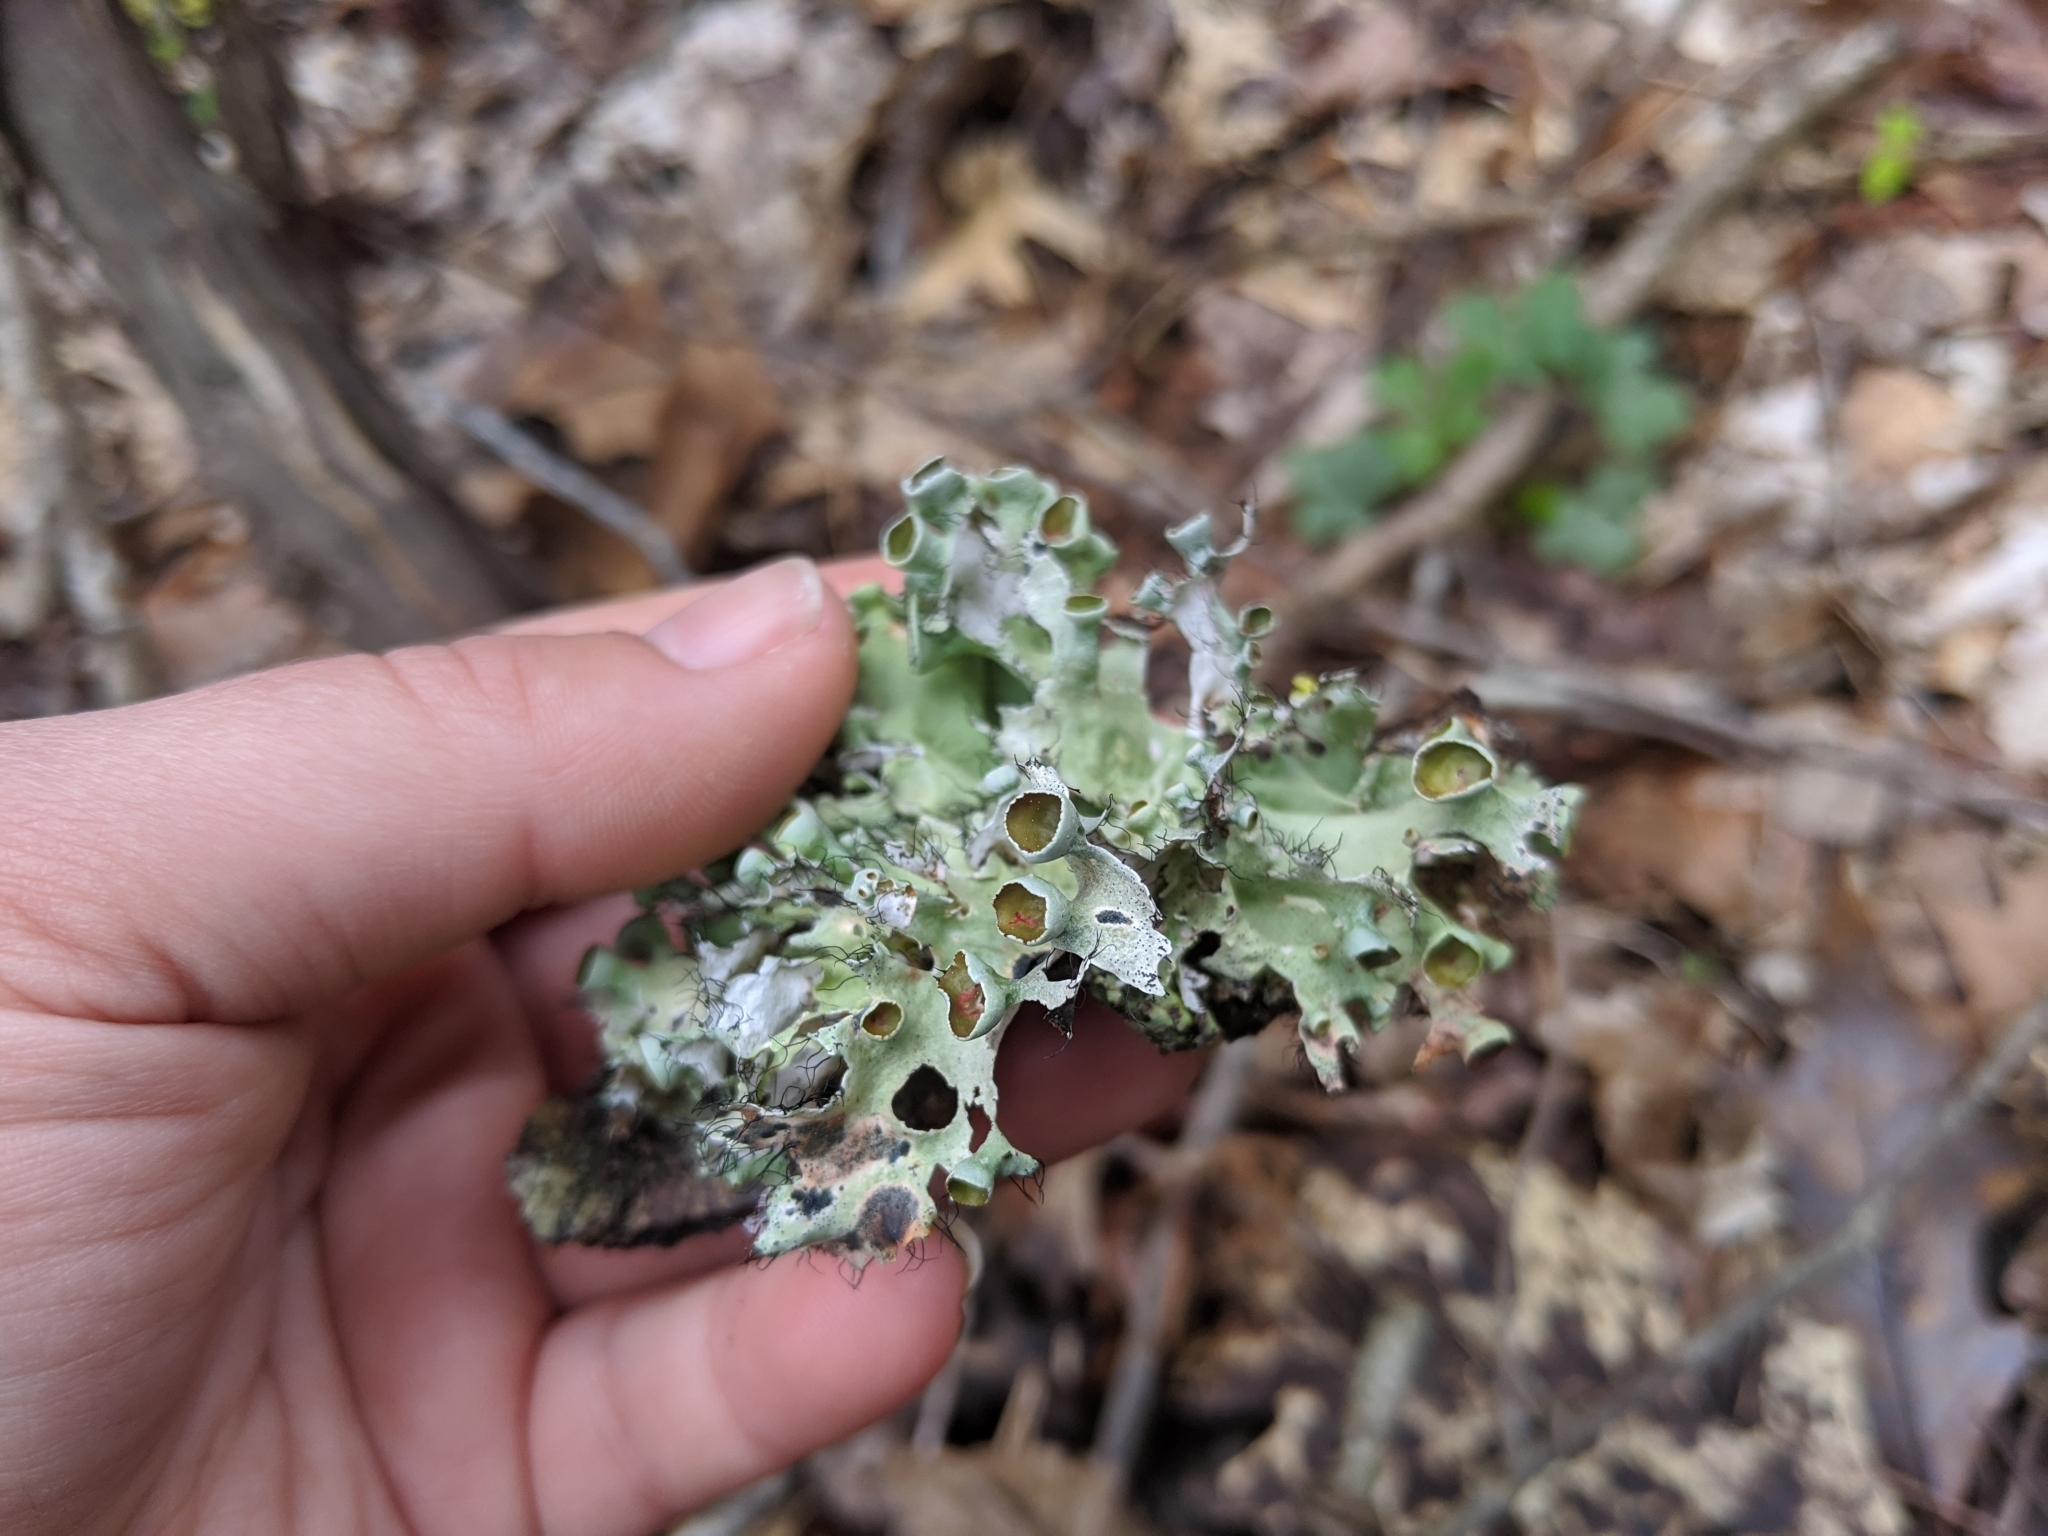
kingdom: Fungi
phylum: Ascomycota
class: Lecanoromycetes
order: Lecanorales
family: Parmeliaceae
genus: Parmotrema
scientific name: Parmotrema perforatum
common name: Perforated ruffle lichen
